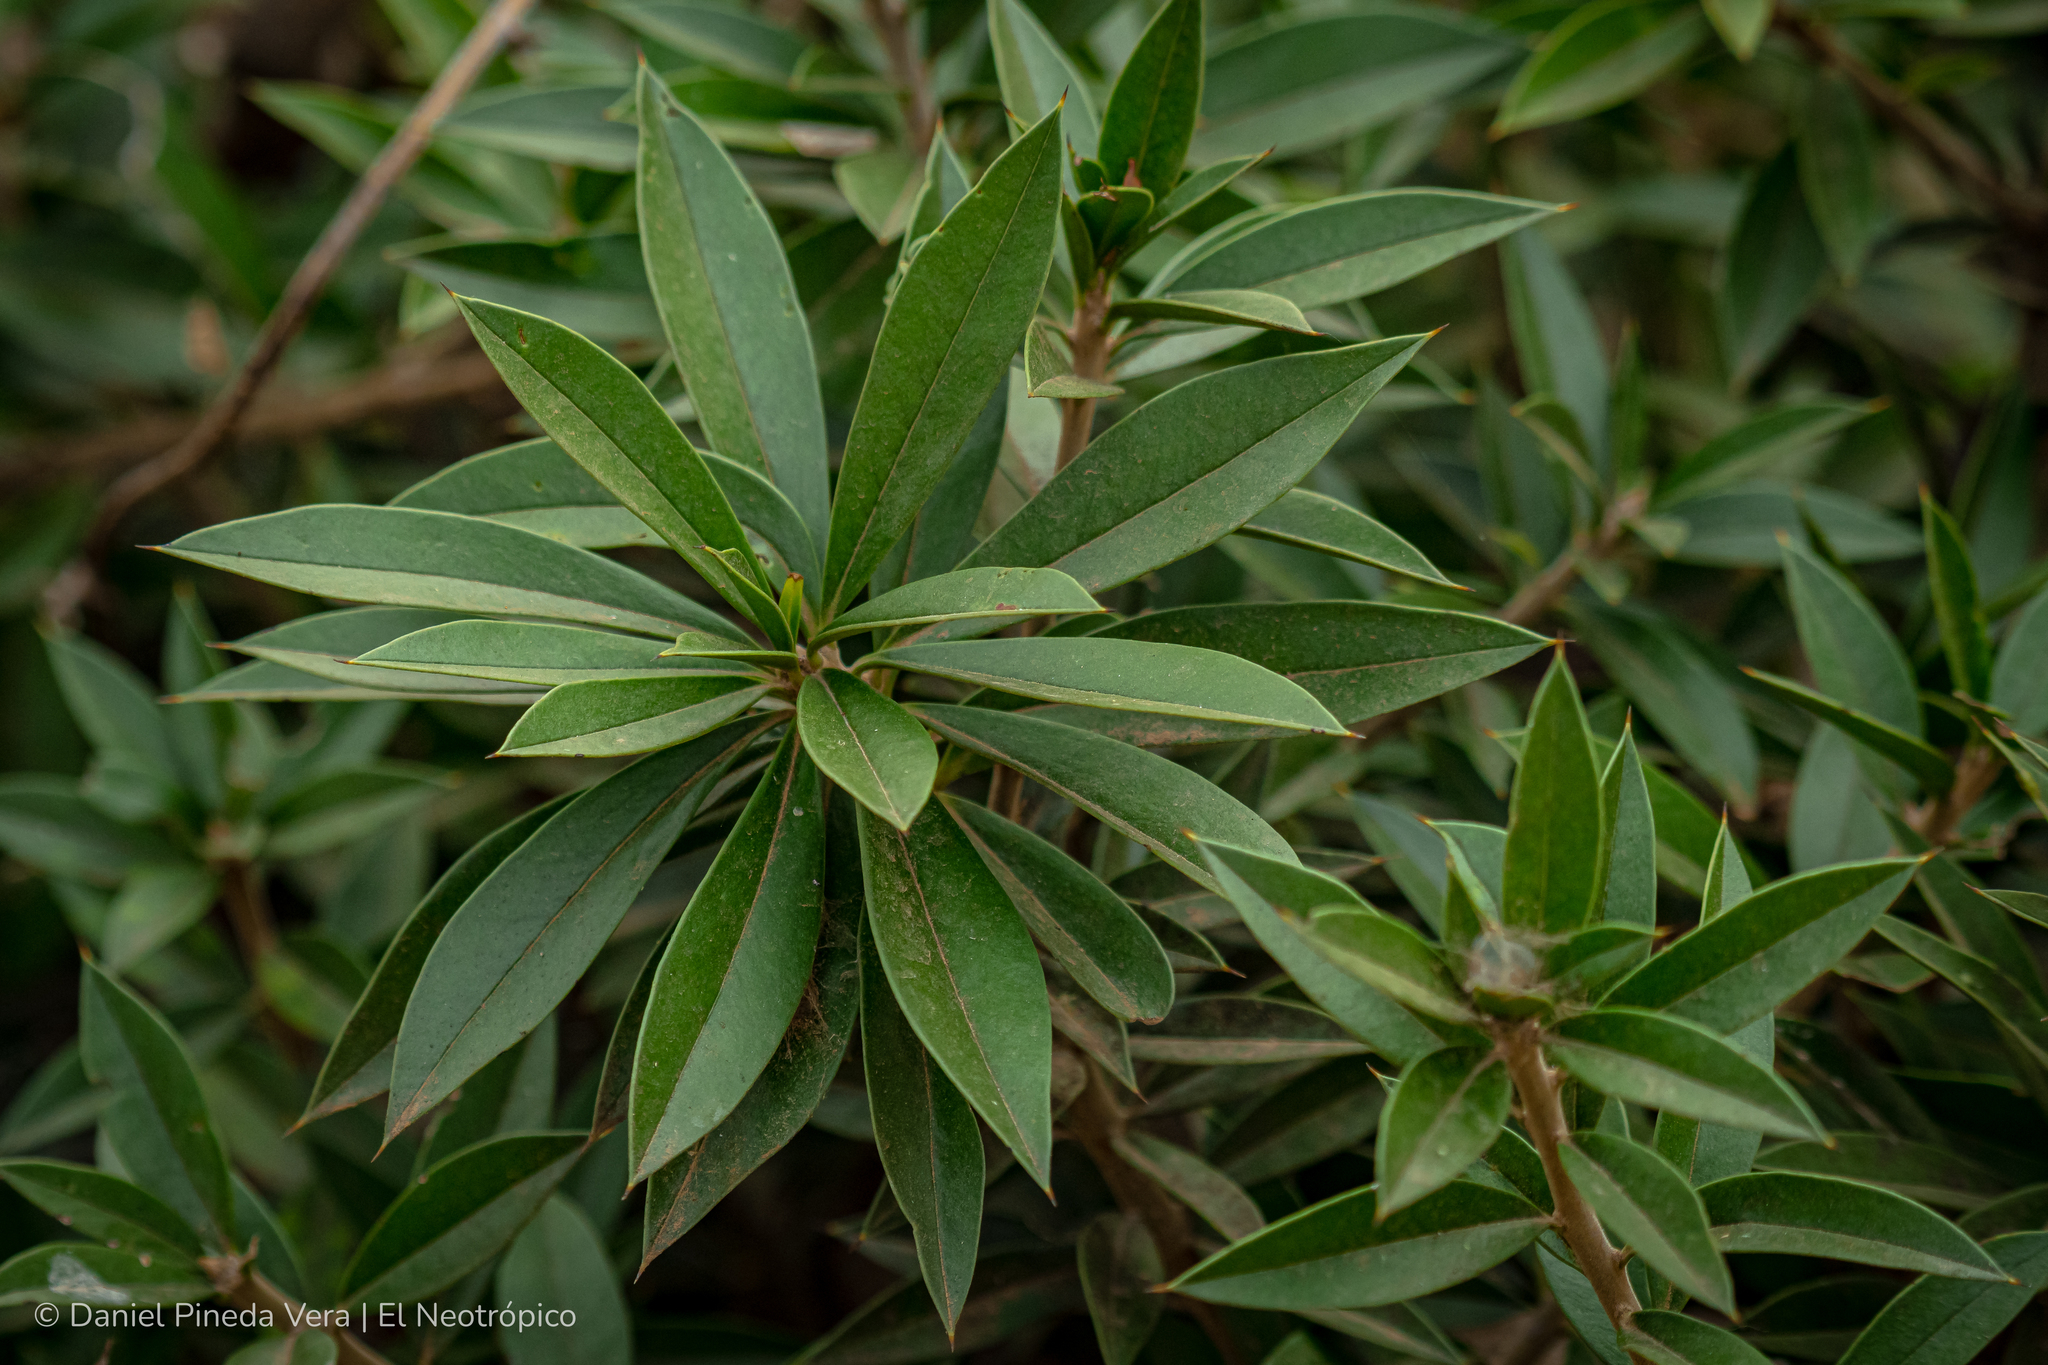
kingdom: Plantae
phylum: Tracheophyta
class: Magnoliopsida
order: Ericales
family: Primulaceae
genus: Bonellia
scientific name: Bonellia macrocarpa
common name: Primrose
